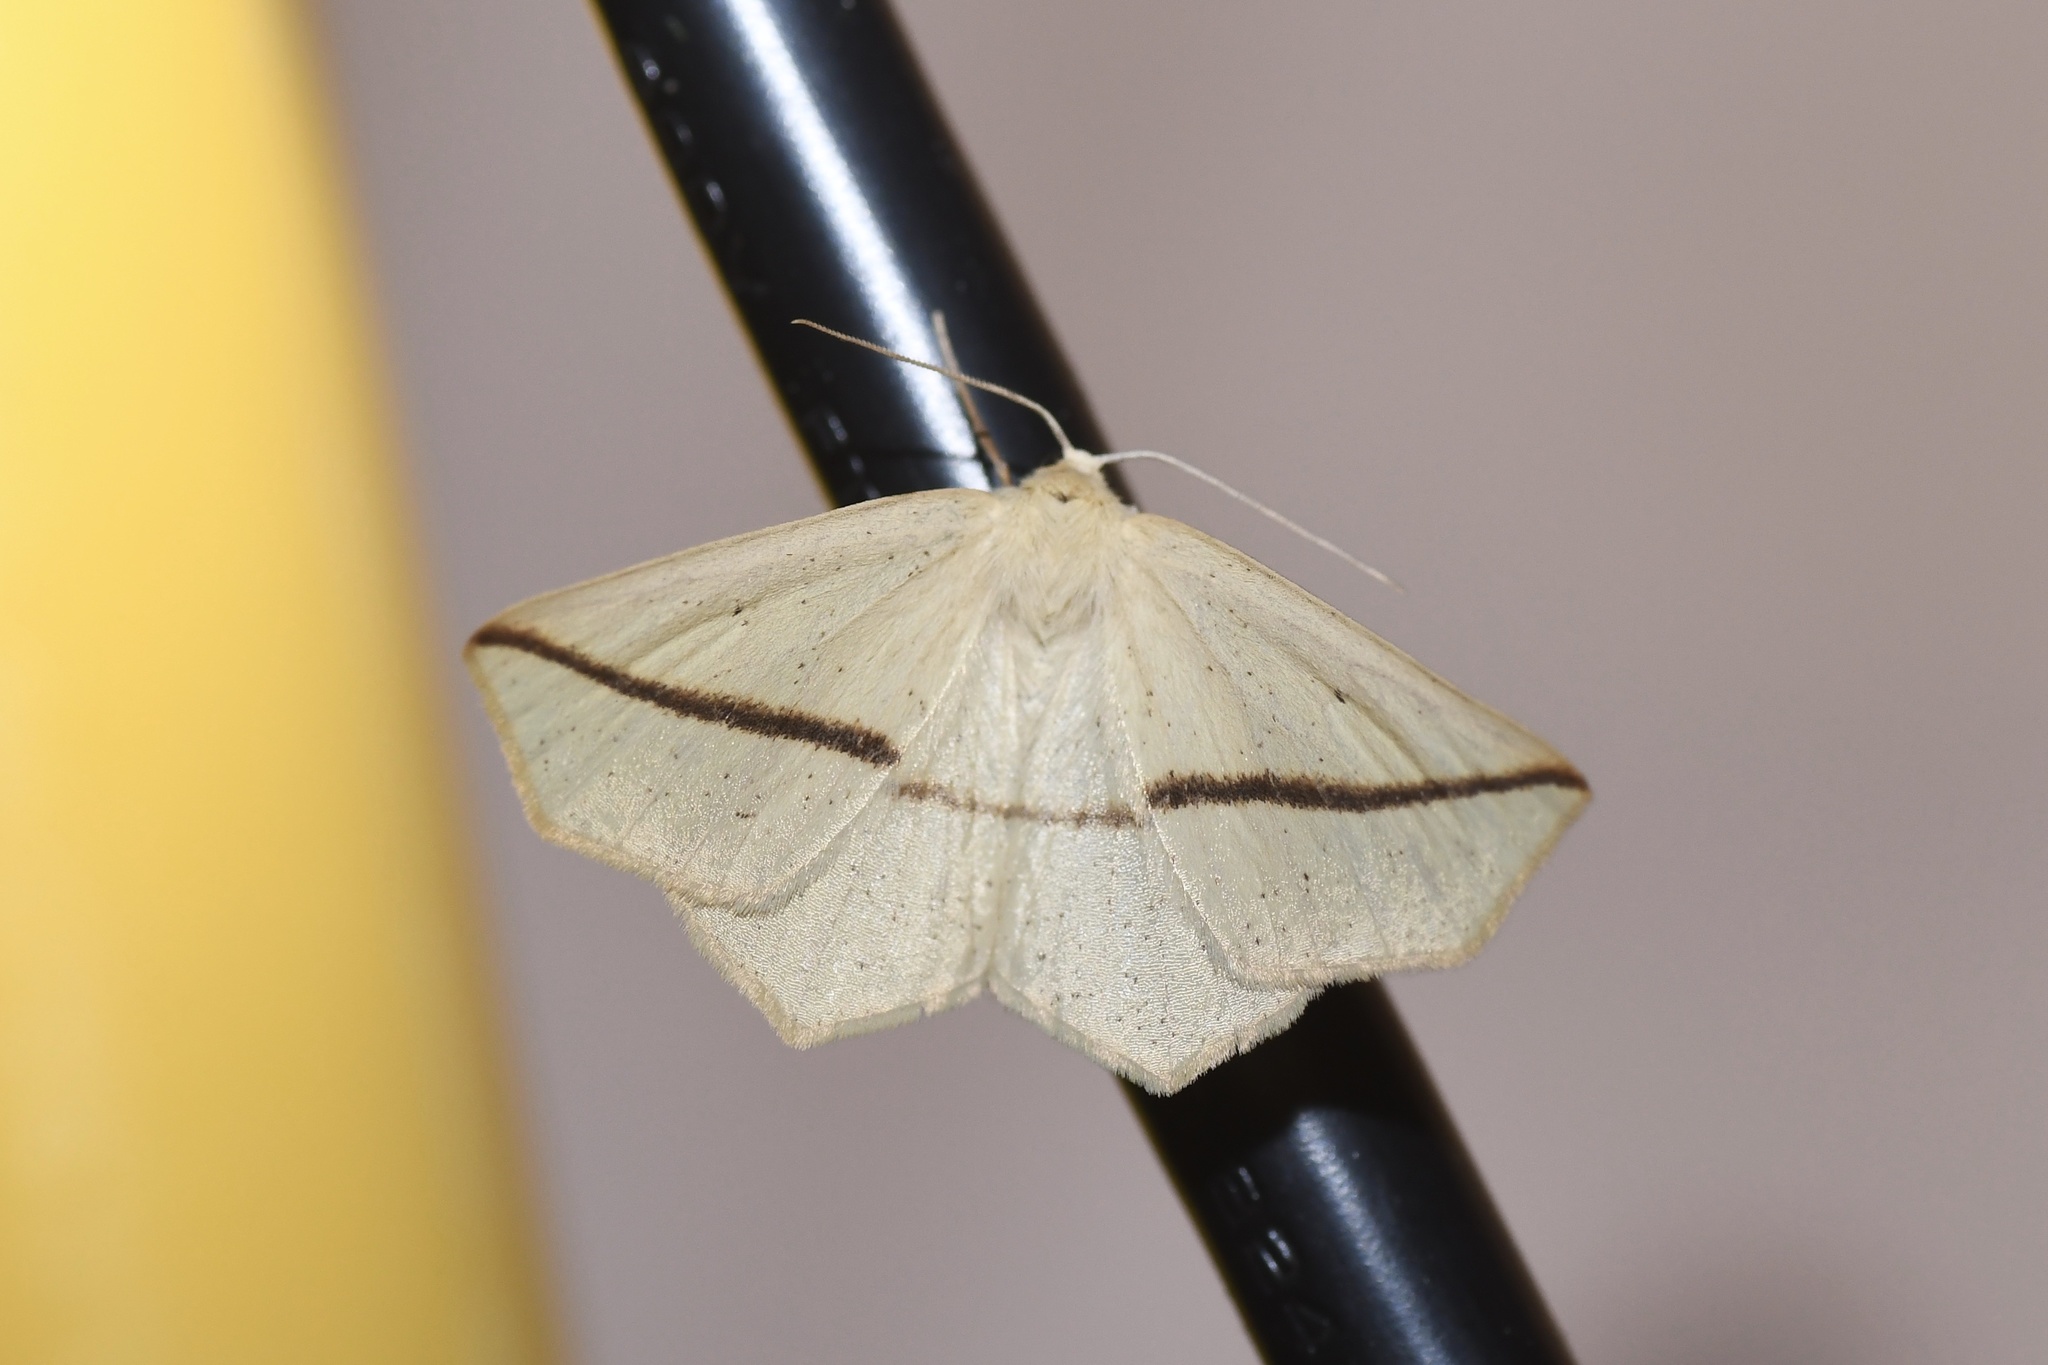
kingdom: Animalia
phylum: Arthropoda
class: Insecta
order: Lepidoptera
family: Geometridae
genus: Tetracis
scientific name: Tetracis crocallata
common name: Yellow slant-line
